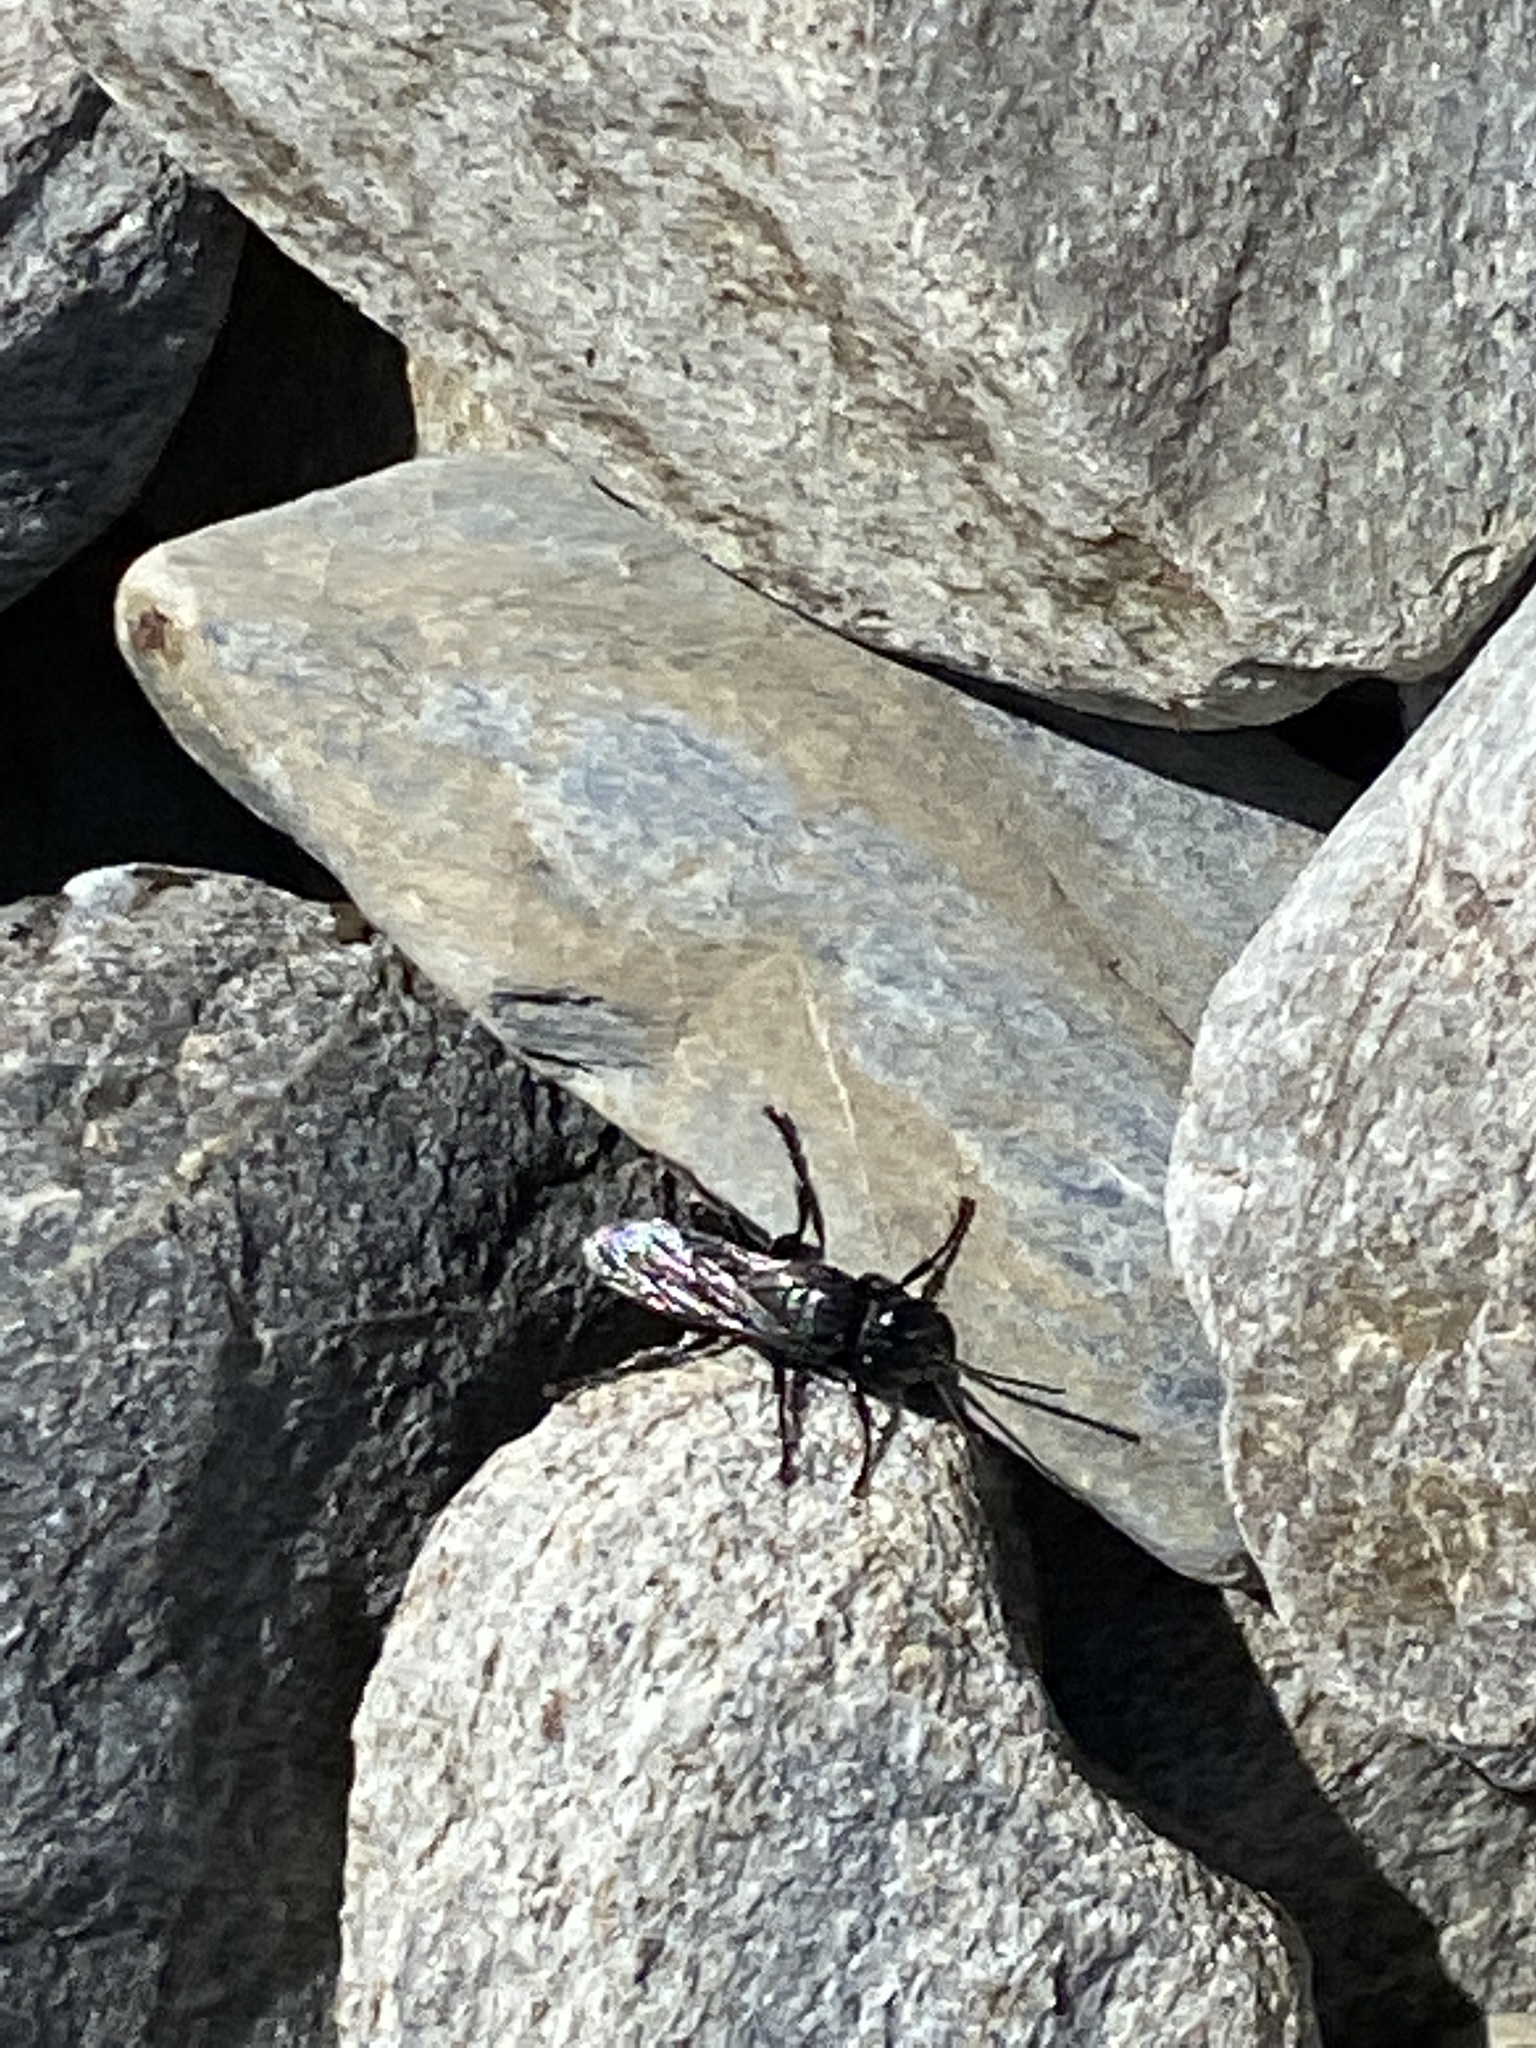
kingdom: Animalia
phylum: Arthropoda
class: Insecta
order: Hymenoptera
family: Crabronidae
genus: Tachysphex
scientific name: Tachysphex nigerrimus
